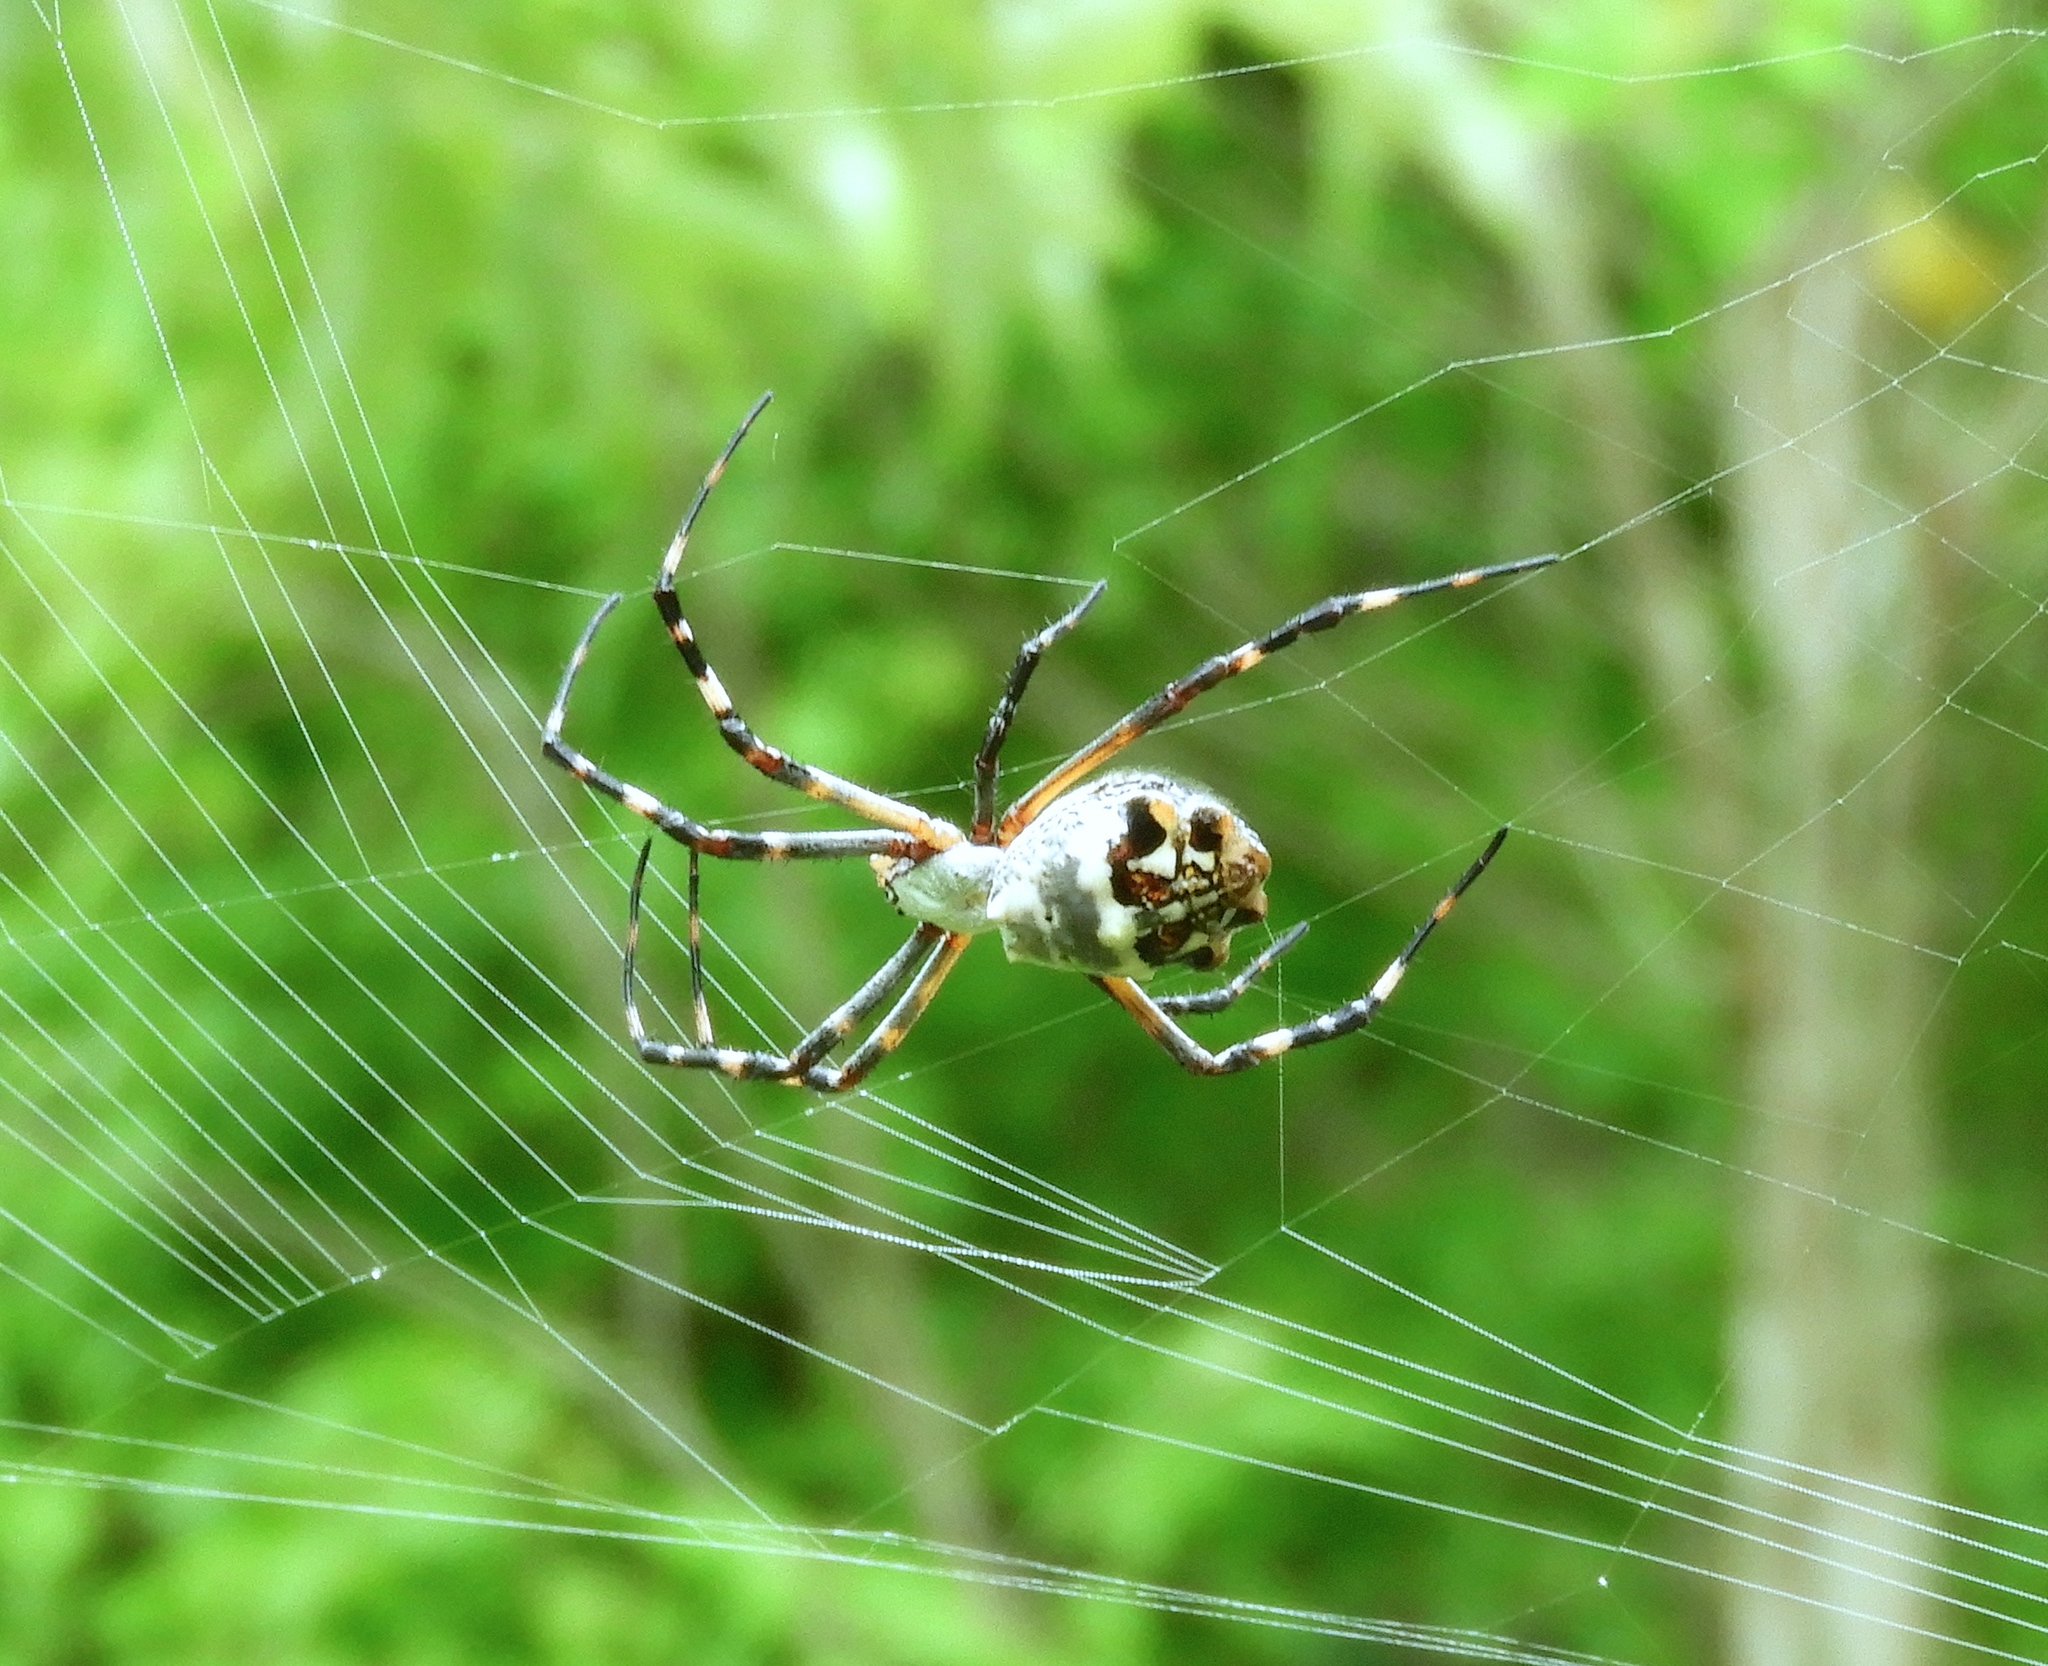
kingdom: Animalia
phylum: Arthropoda
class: Arachnida
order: Araneae
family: Araneidae
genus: Argiope
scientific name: Argiope argentata
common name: Orb weavers
